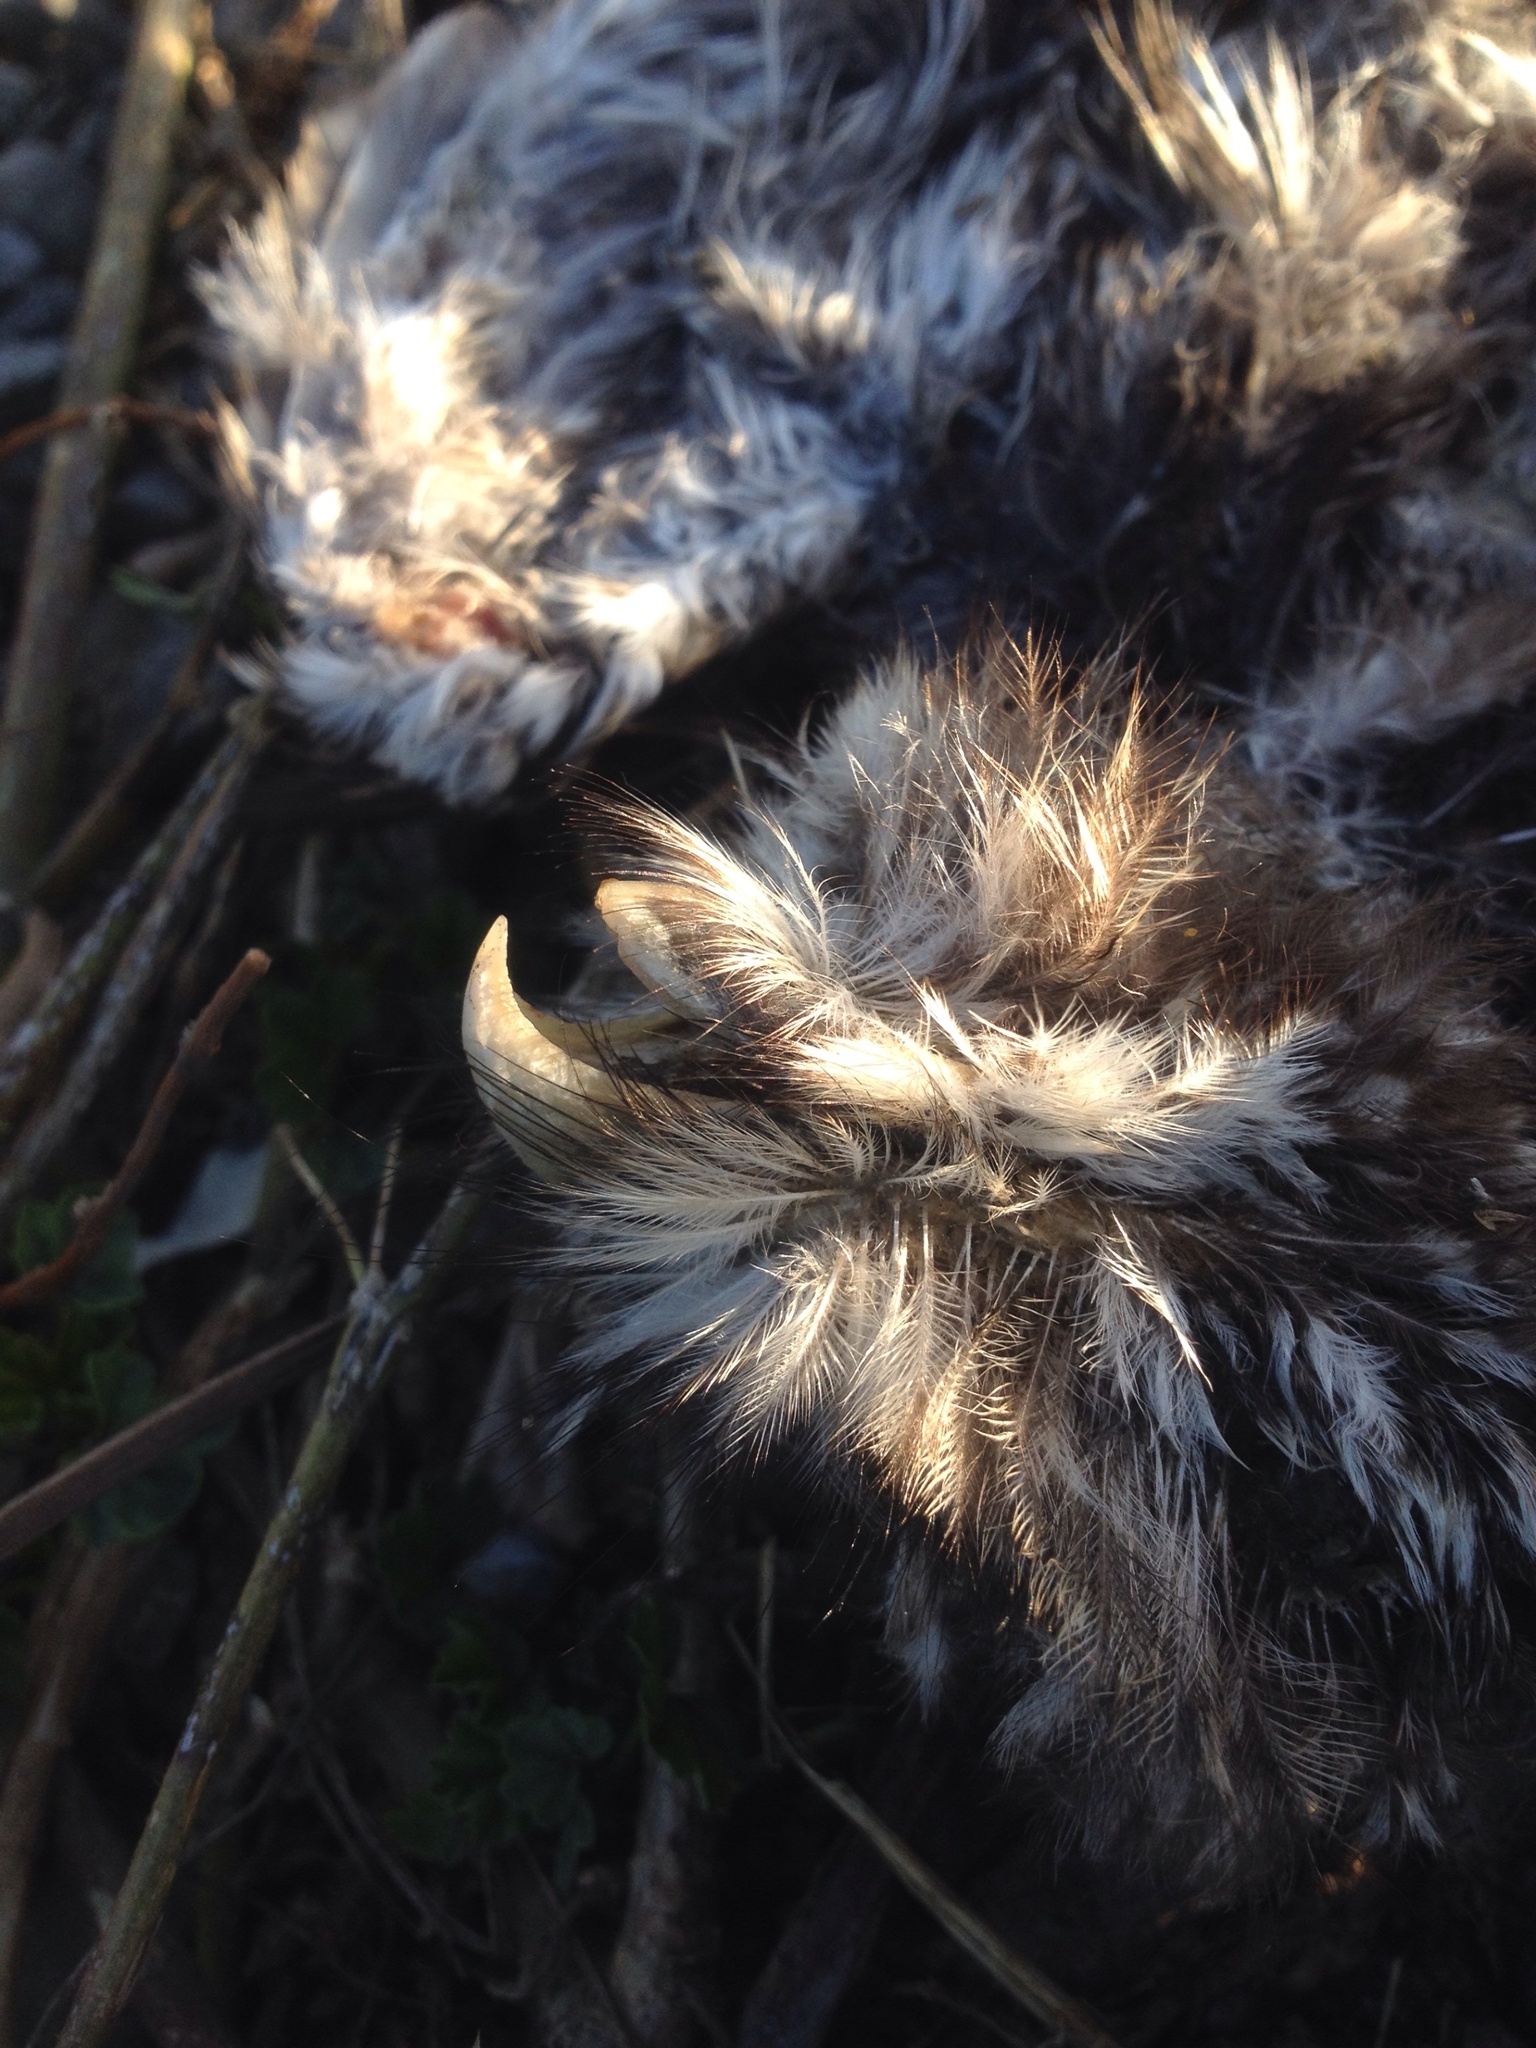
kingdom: Animalia
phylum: Chordata
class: Aves
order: Strigiformes
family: Strigidae
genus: Athene
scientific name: Athene noctua
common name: Little owl
